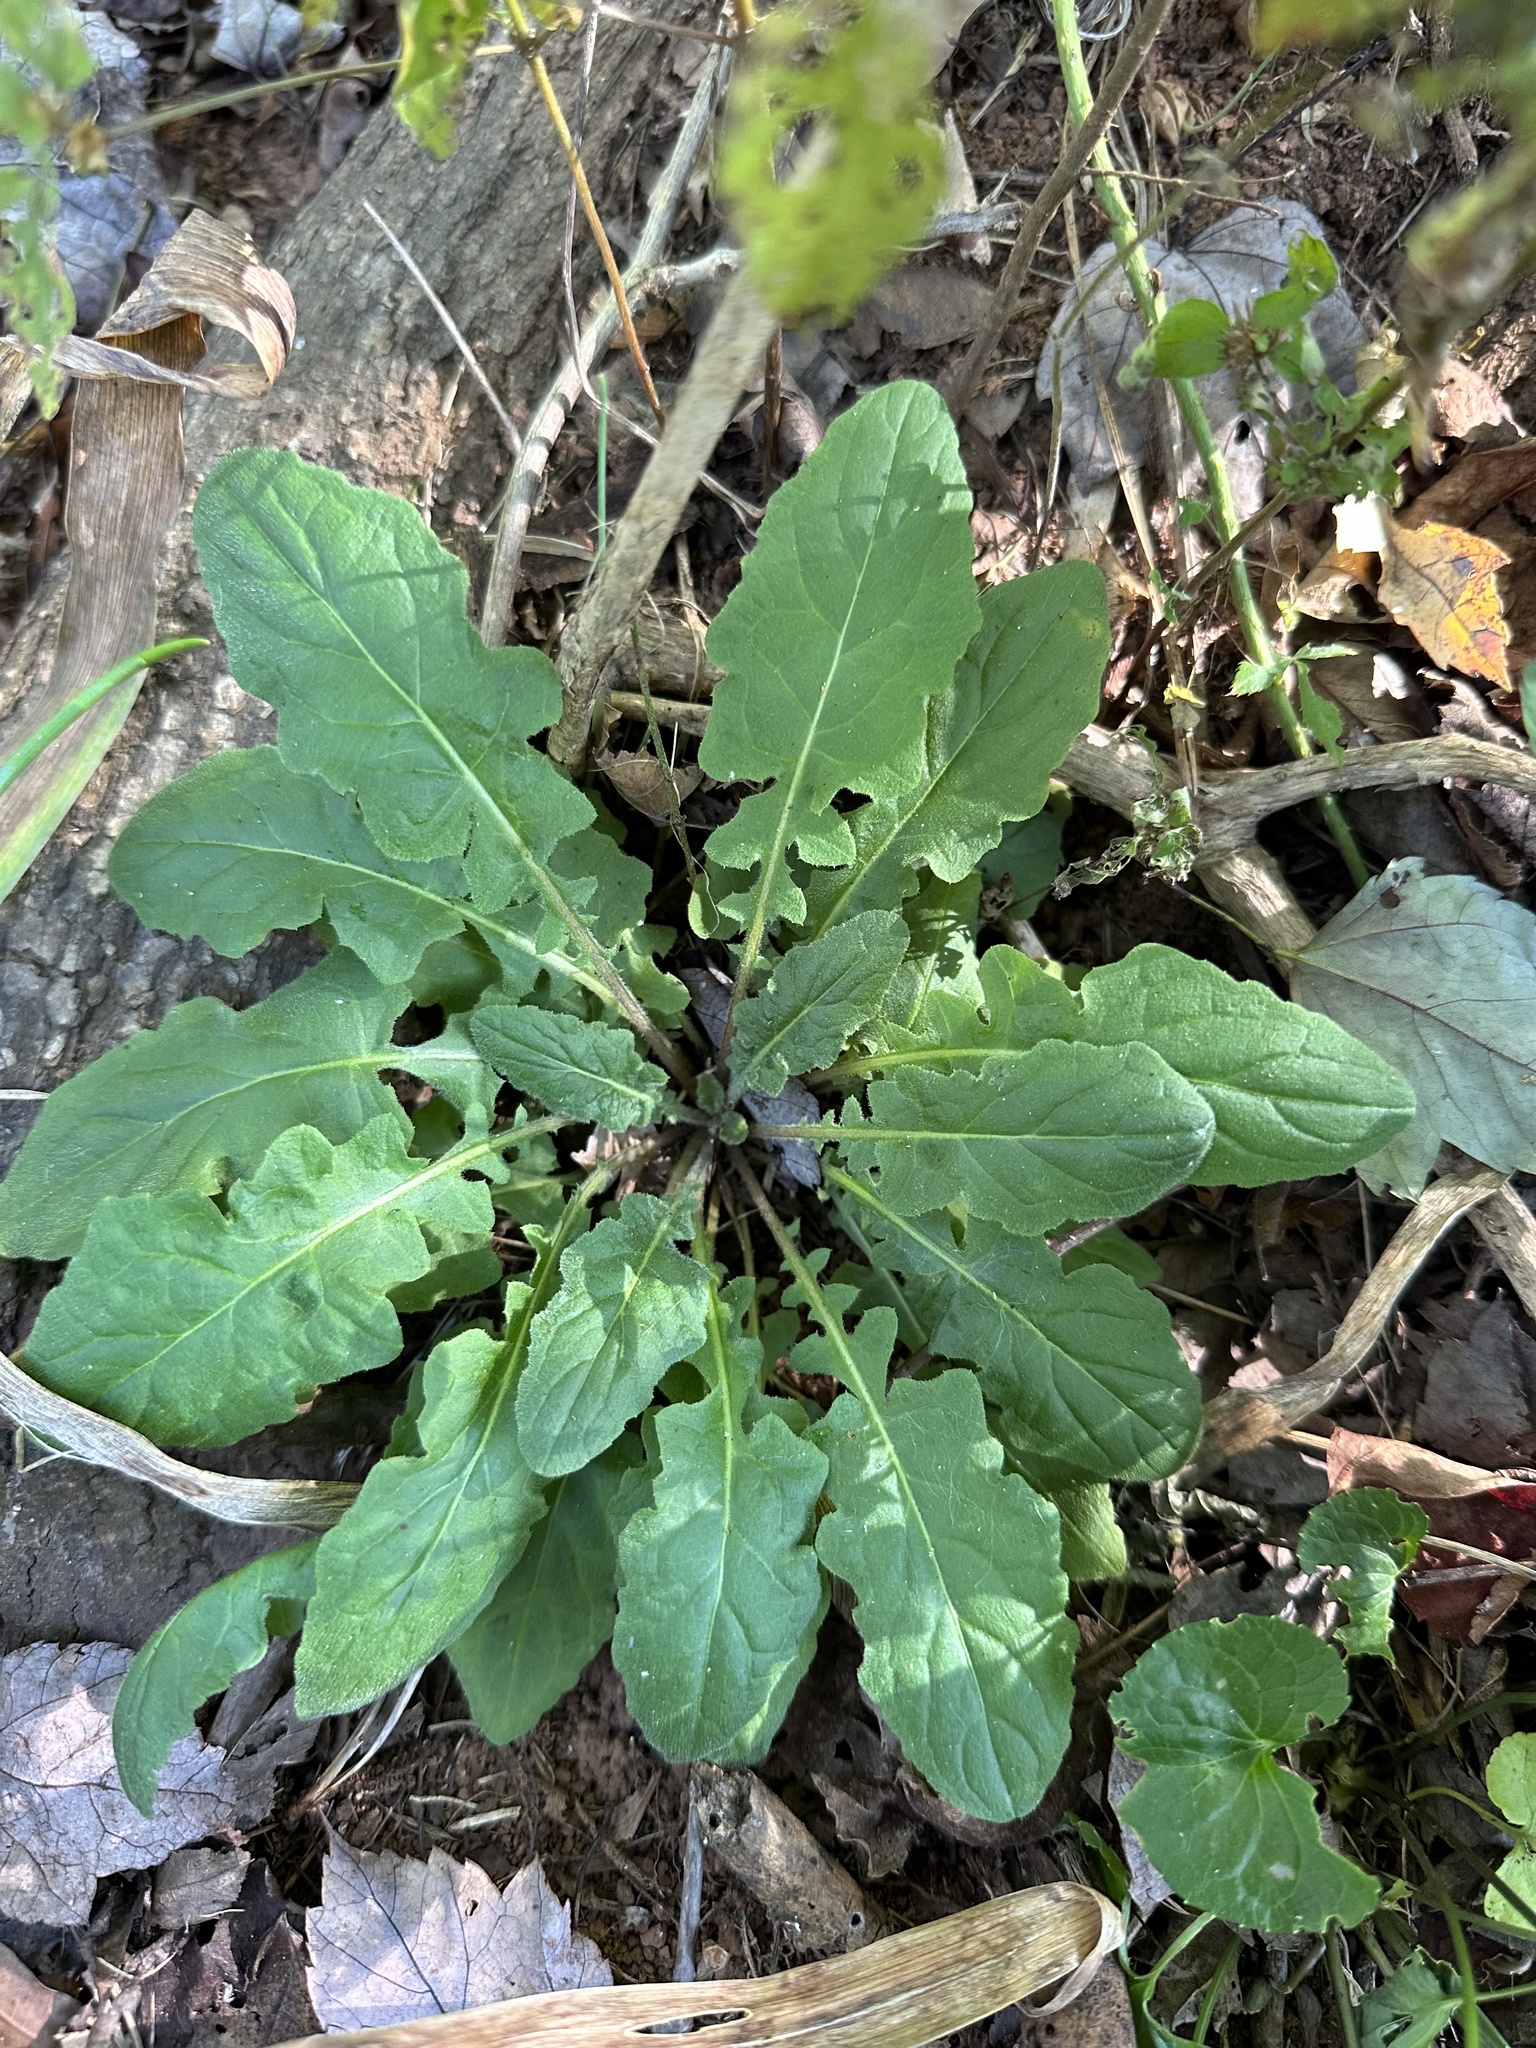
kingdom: Plantae
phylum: Tracheophyta
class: Magnoliopsida
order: Asterales
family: Asteraceae
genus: Youngia
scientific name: Youngia japonica
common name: Oriental false hawksbeard
